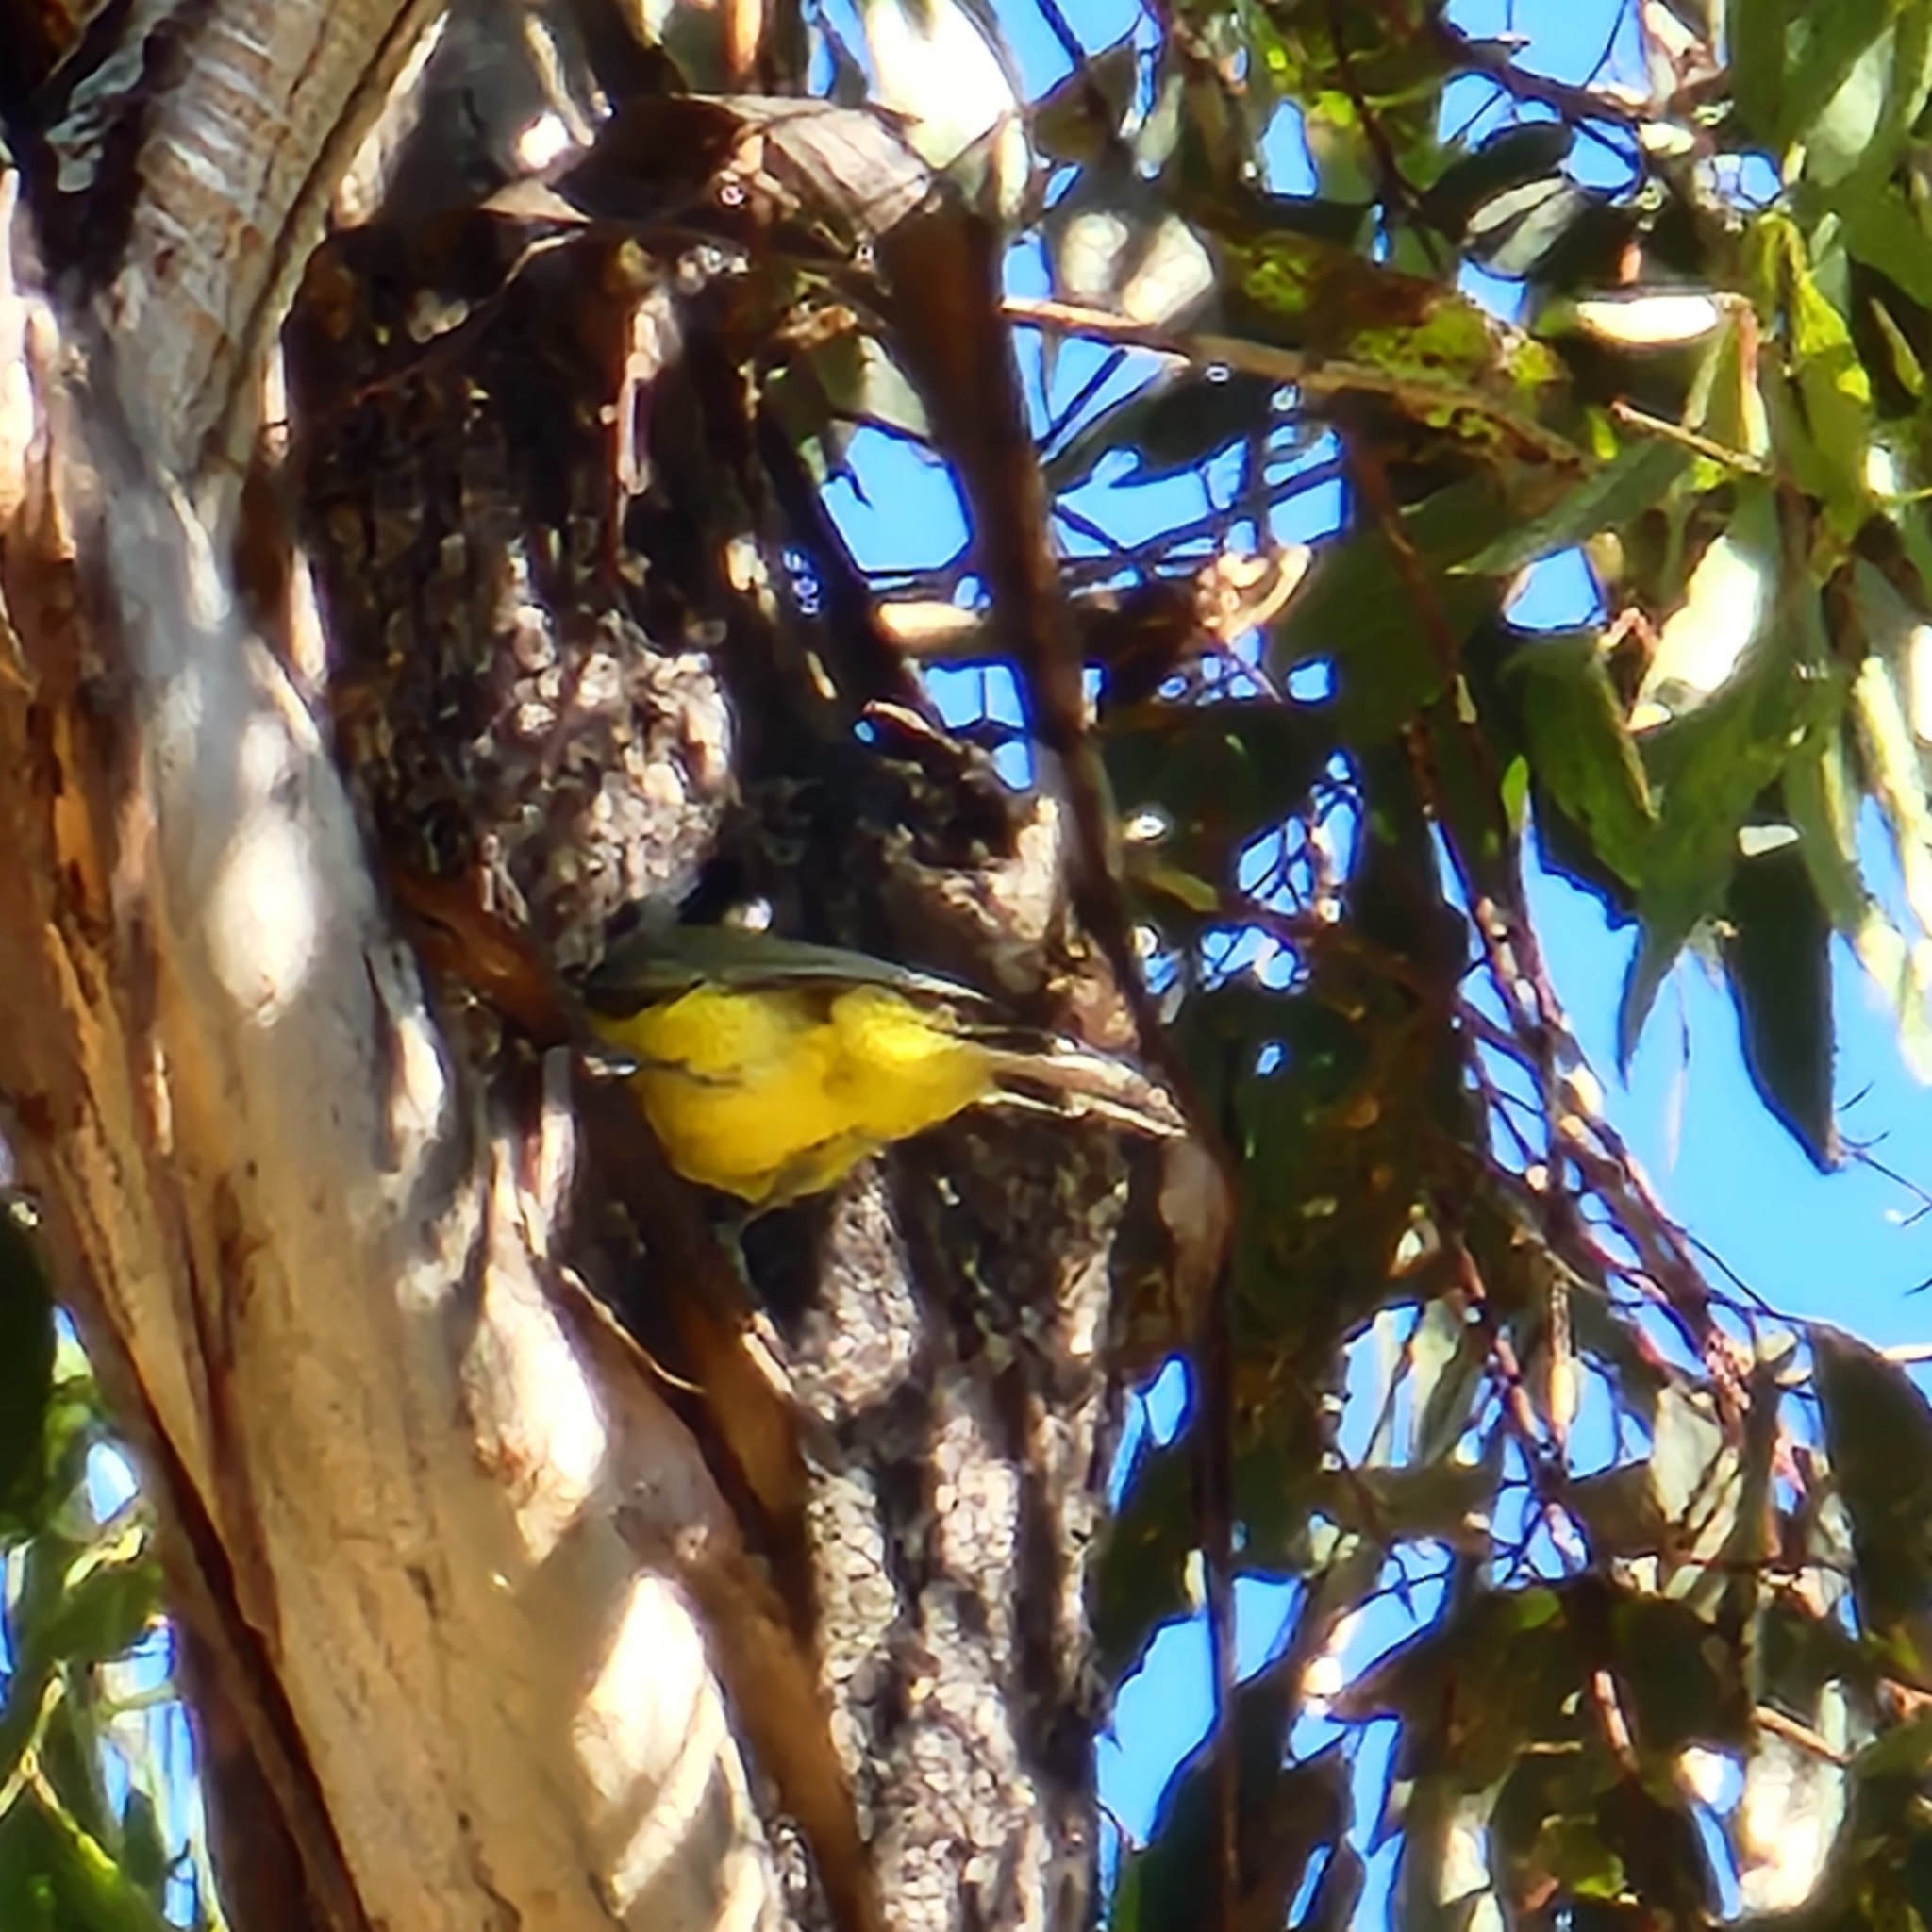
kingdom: Animalia
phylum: Chordata
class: Aves
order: Passeriformes
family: Pachycephalidae
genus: Falcunculus
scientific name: Falcunculus frontatus
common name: Crested shriketit
